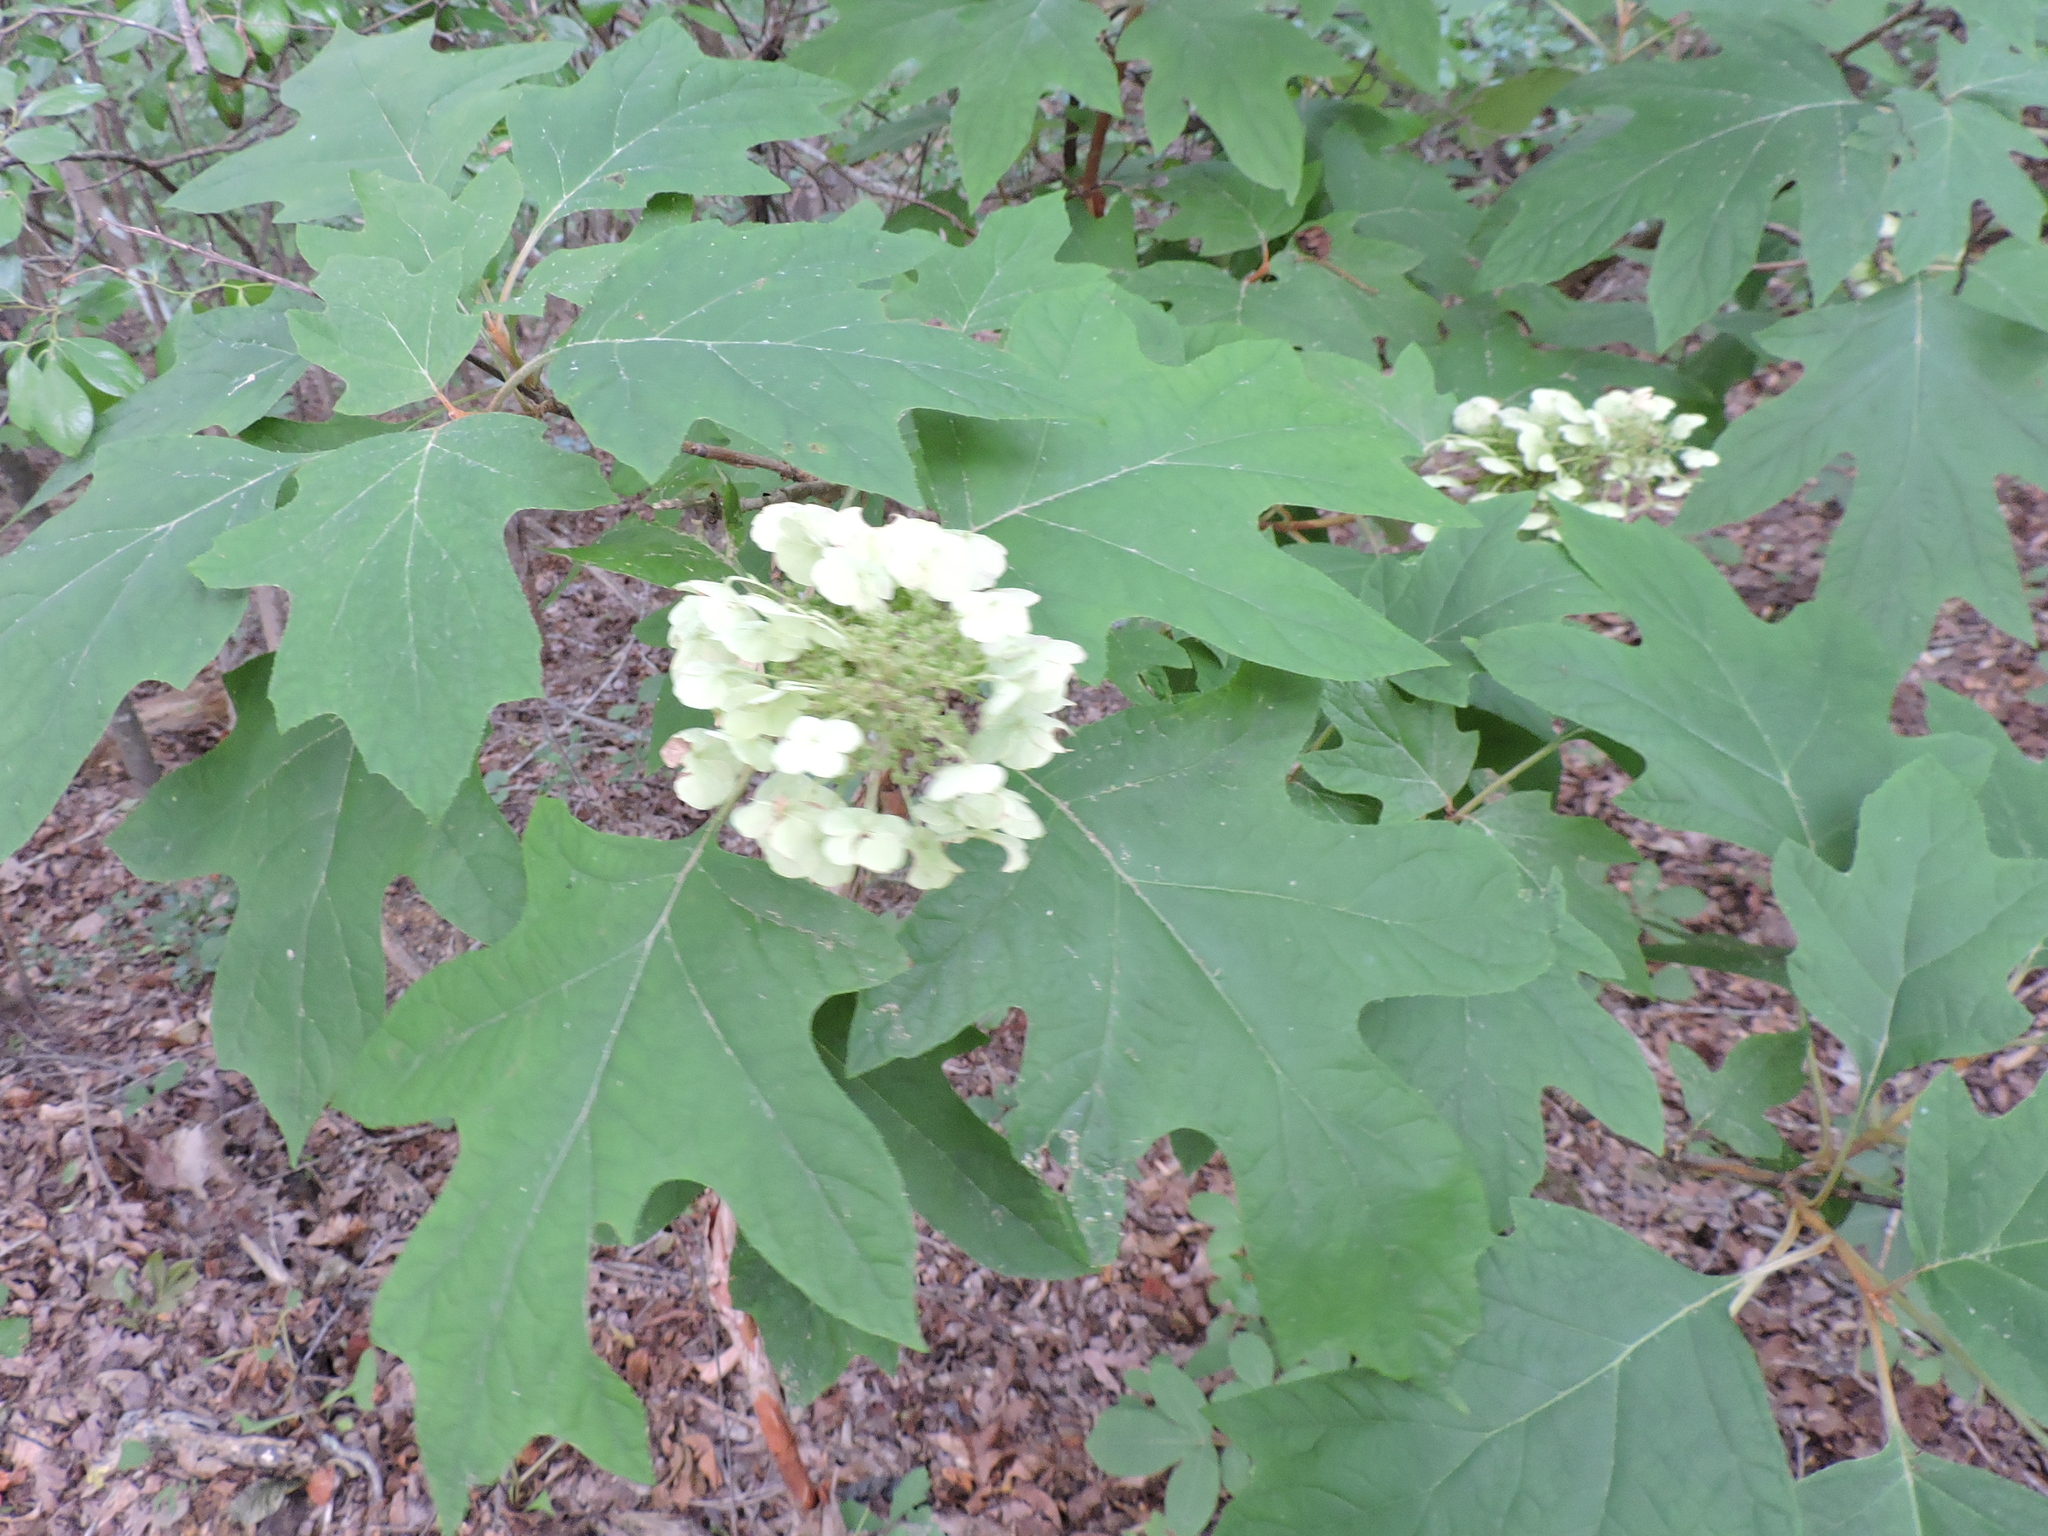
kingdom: Plantae
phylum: Tracheophyta
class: Magnoliopsida
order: Cornales
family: Hydrangeaceae
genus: Hydrangea
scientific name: Hydrangea quercifolia
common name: Oak-leaf hydrangea
